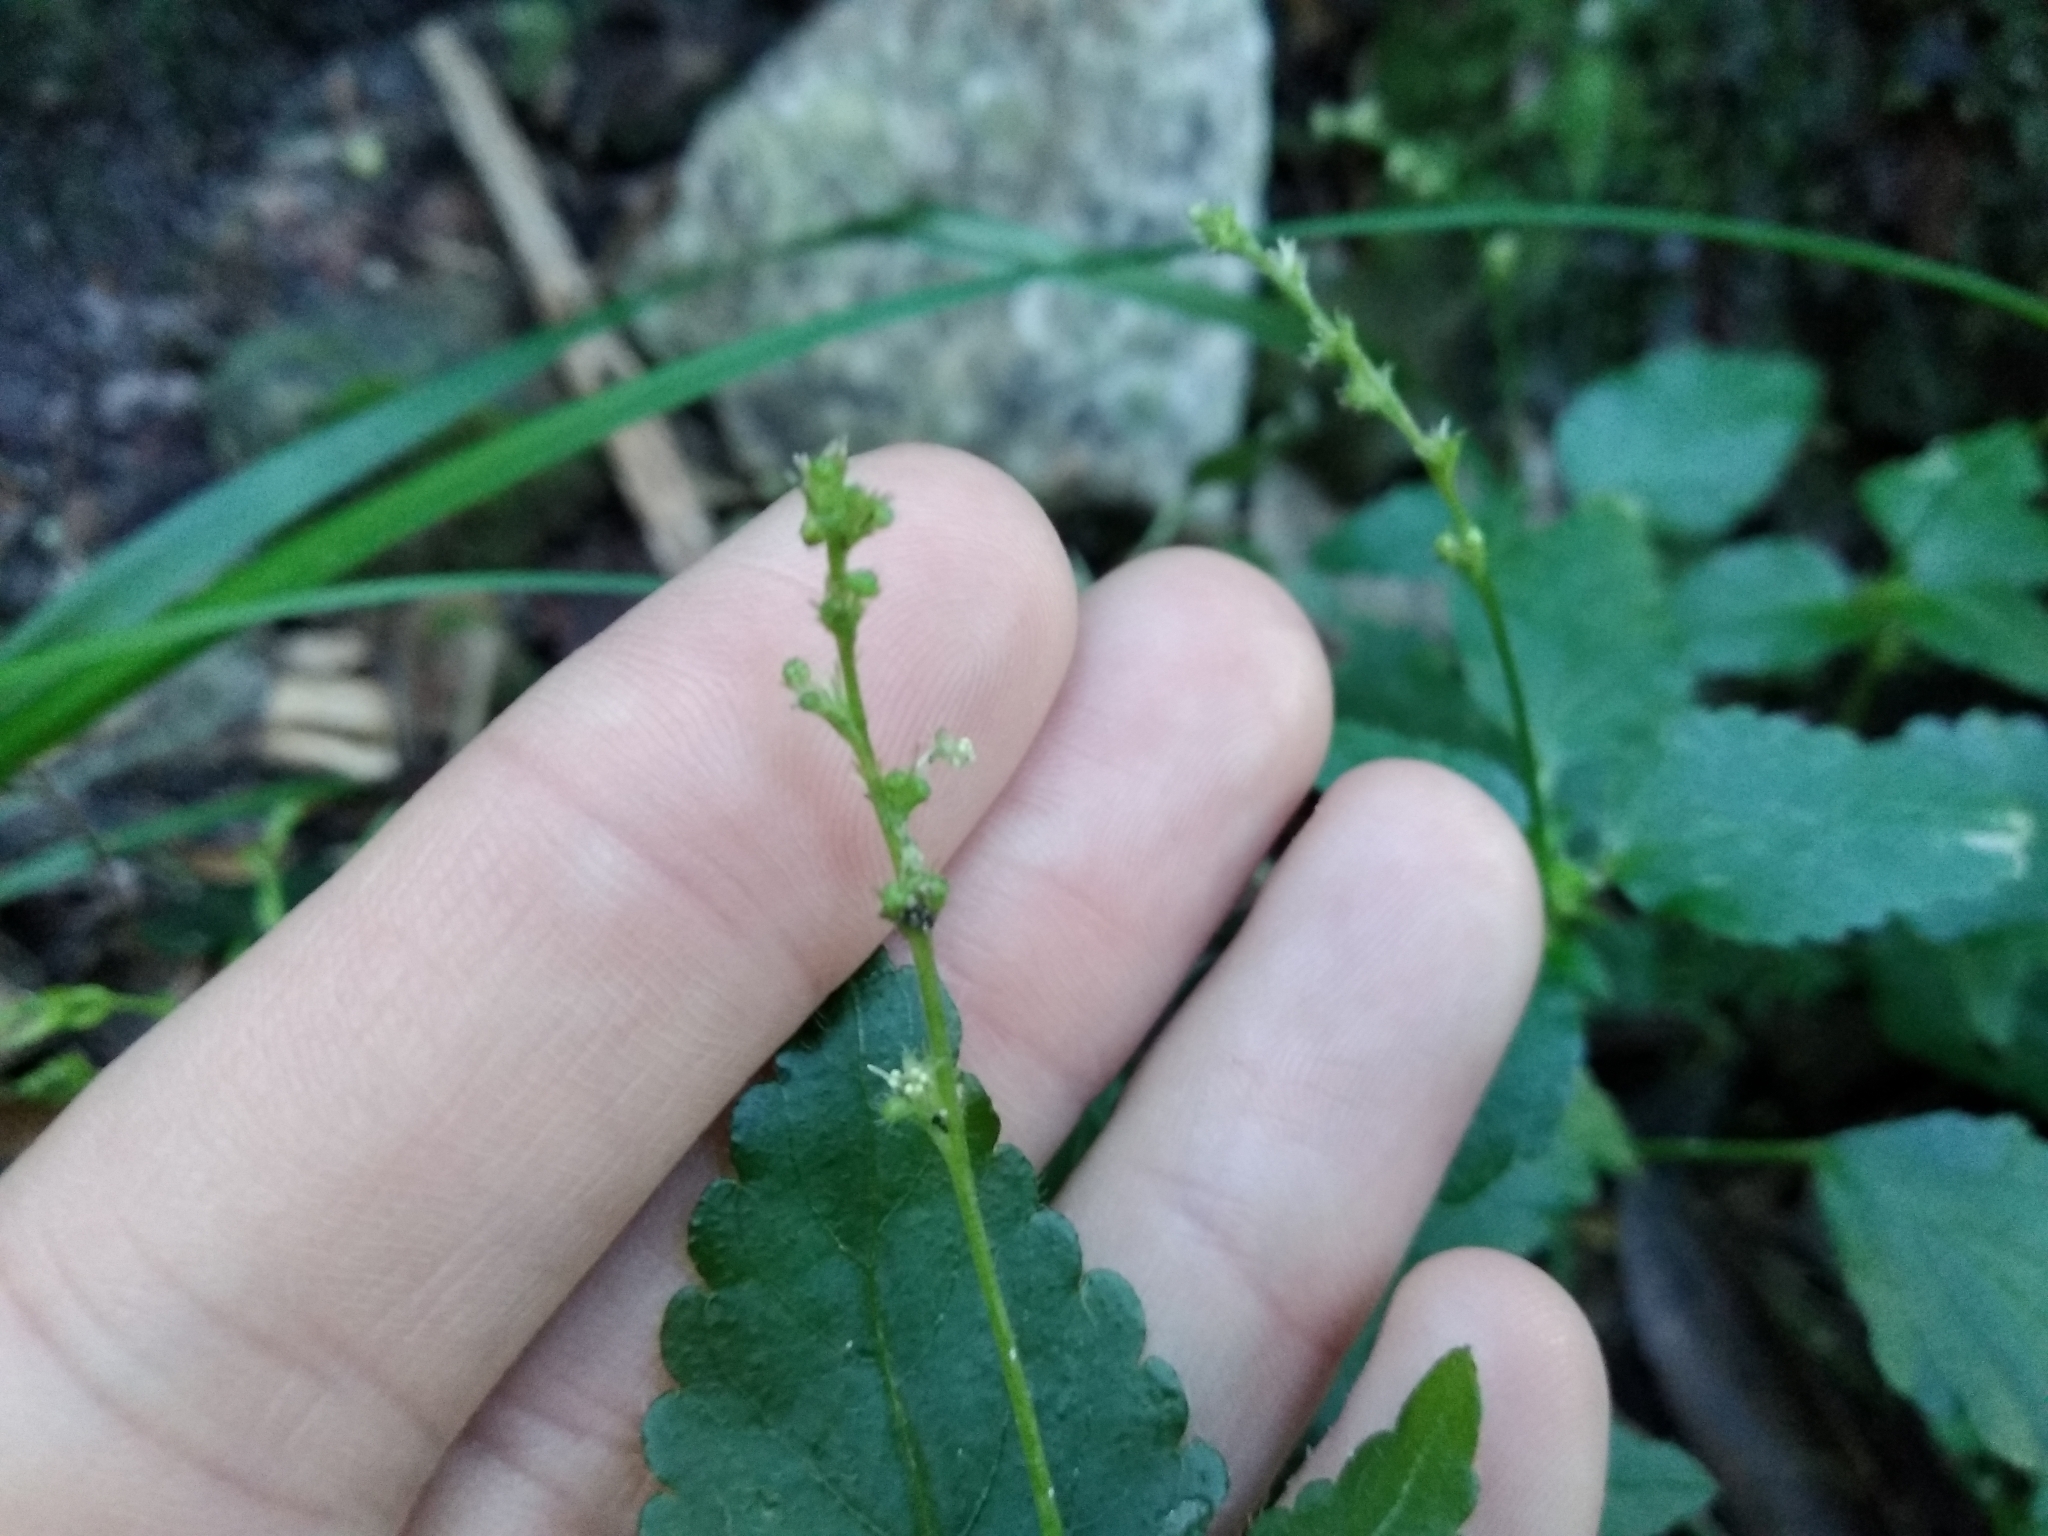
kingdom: Plantae
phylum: Tracheophyta
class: Magnoliopsida
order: Malpighiales
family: Euphorbiaceae
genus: Leidesia
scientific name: Leidesia procumbens
